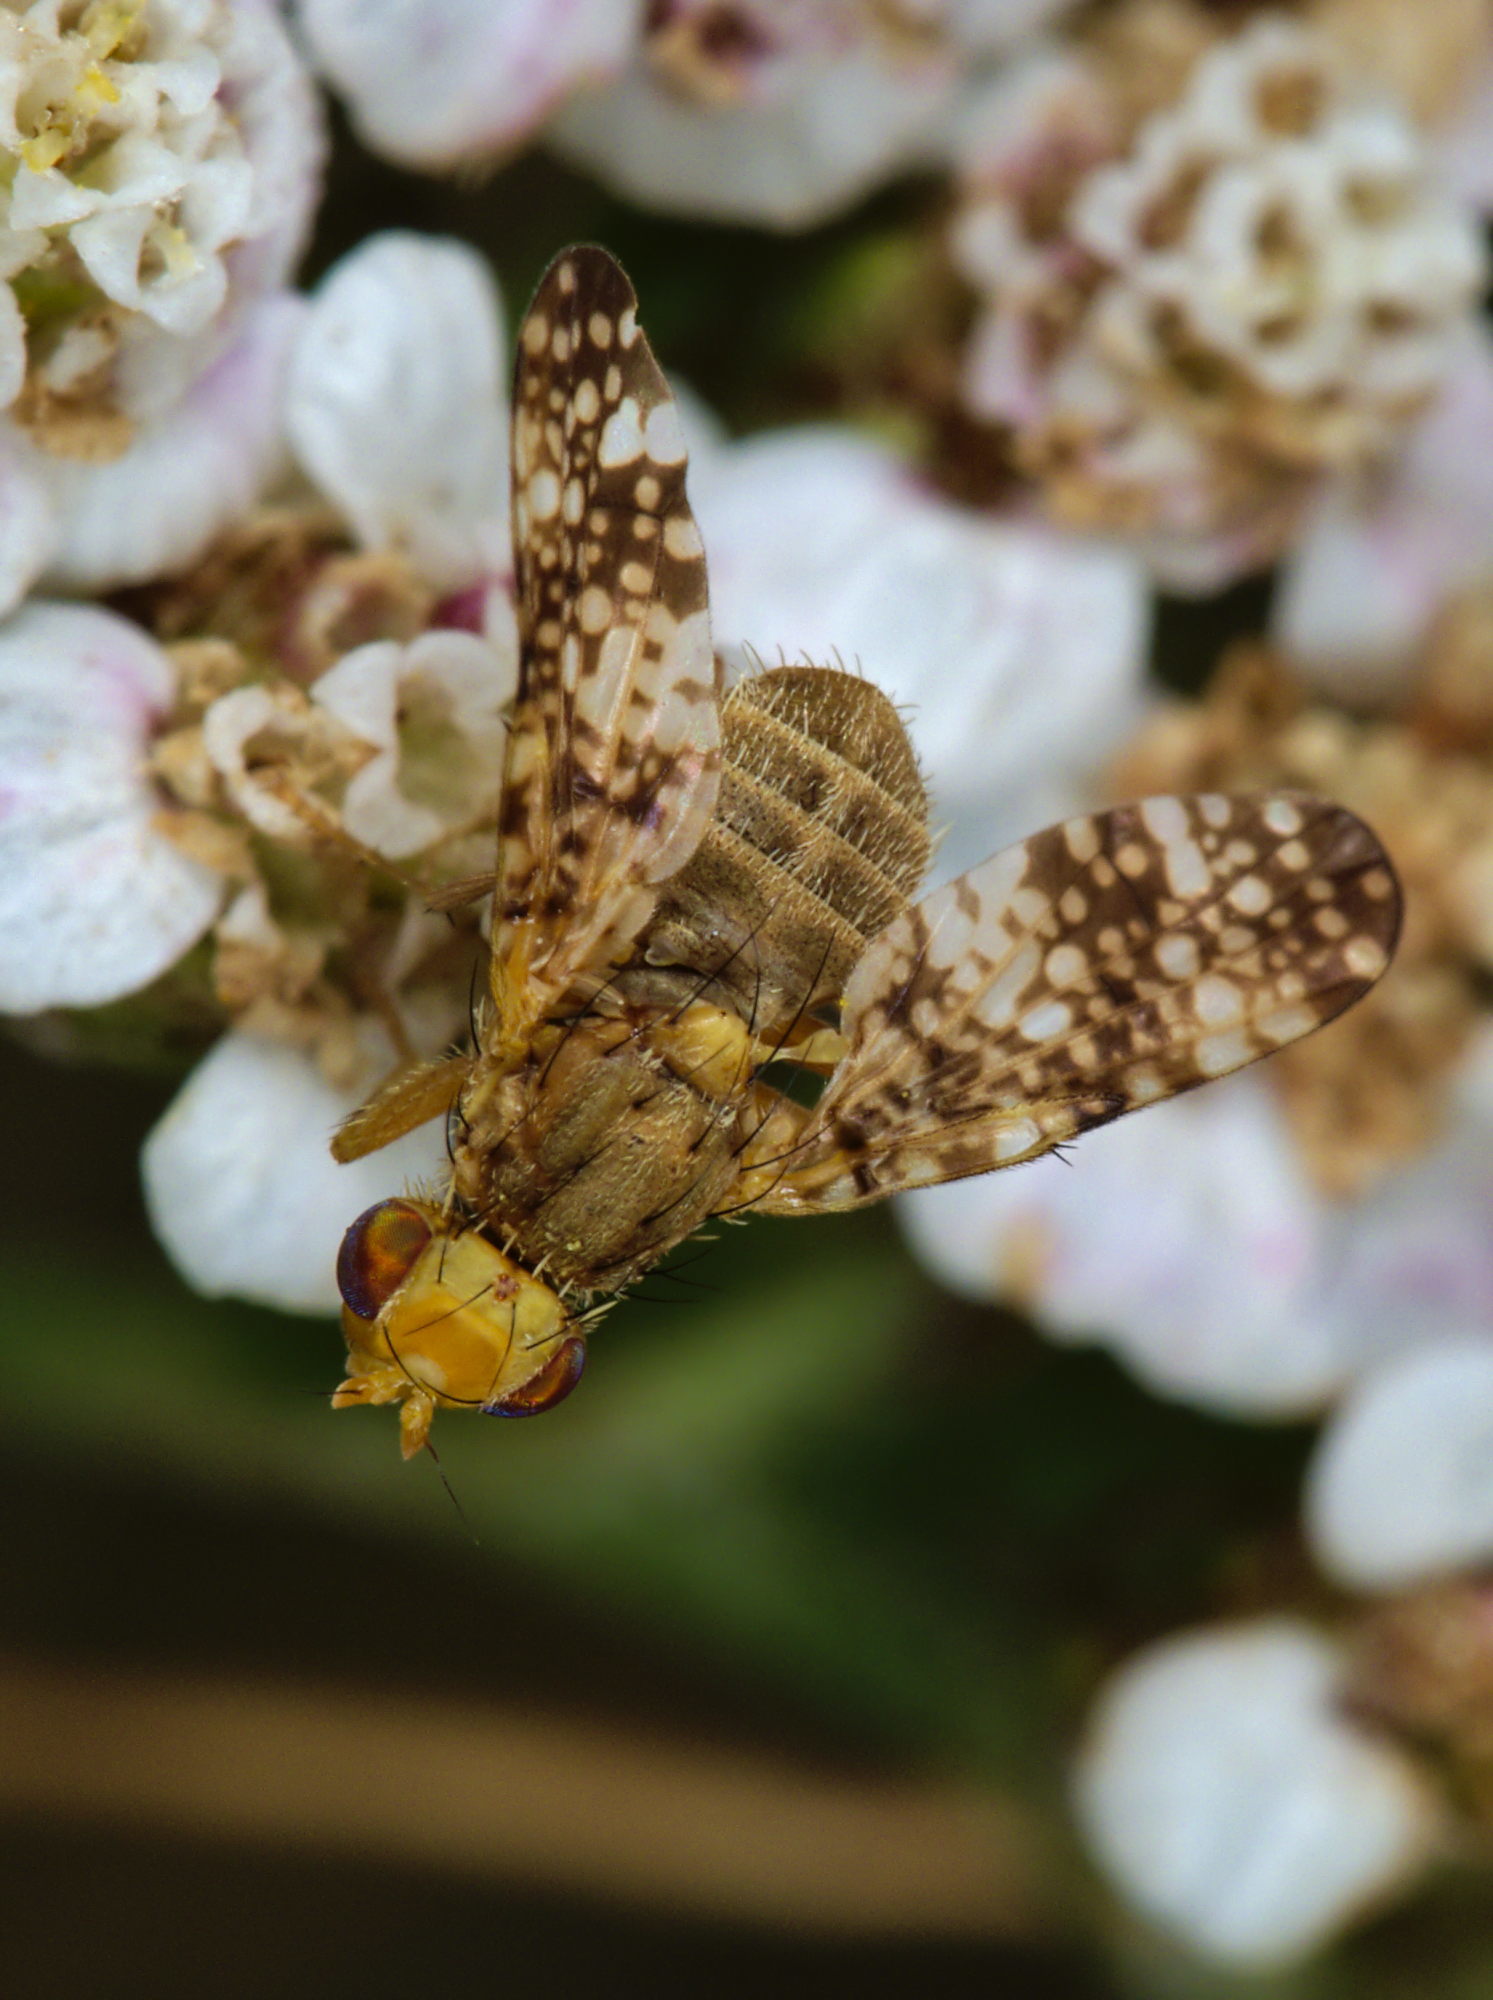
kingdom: Animalia
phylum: Arthropoda
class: Insecta
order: Diptera
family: Tephritidae
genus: Oxyna
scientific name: Oxyna flavipennis
